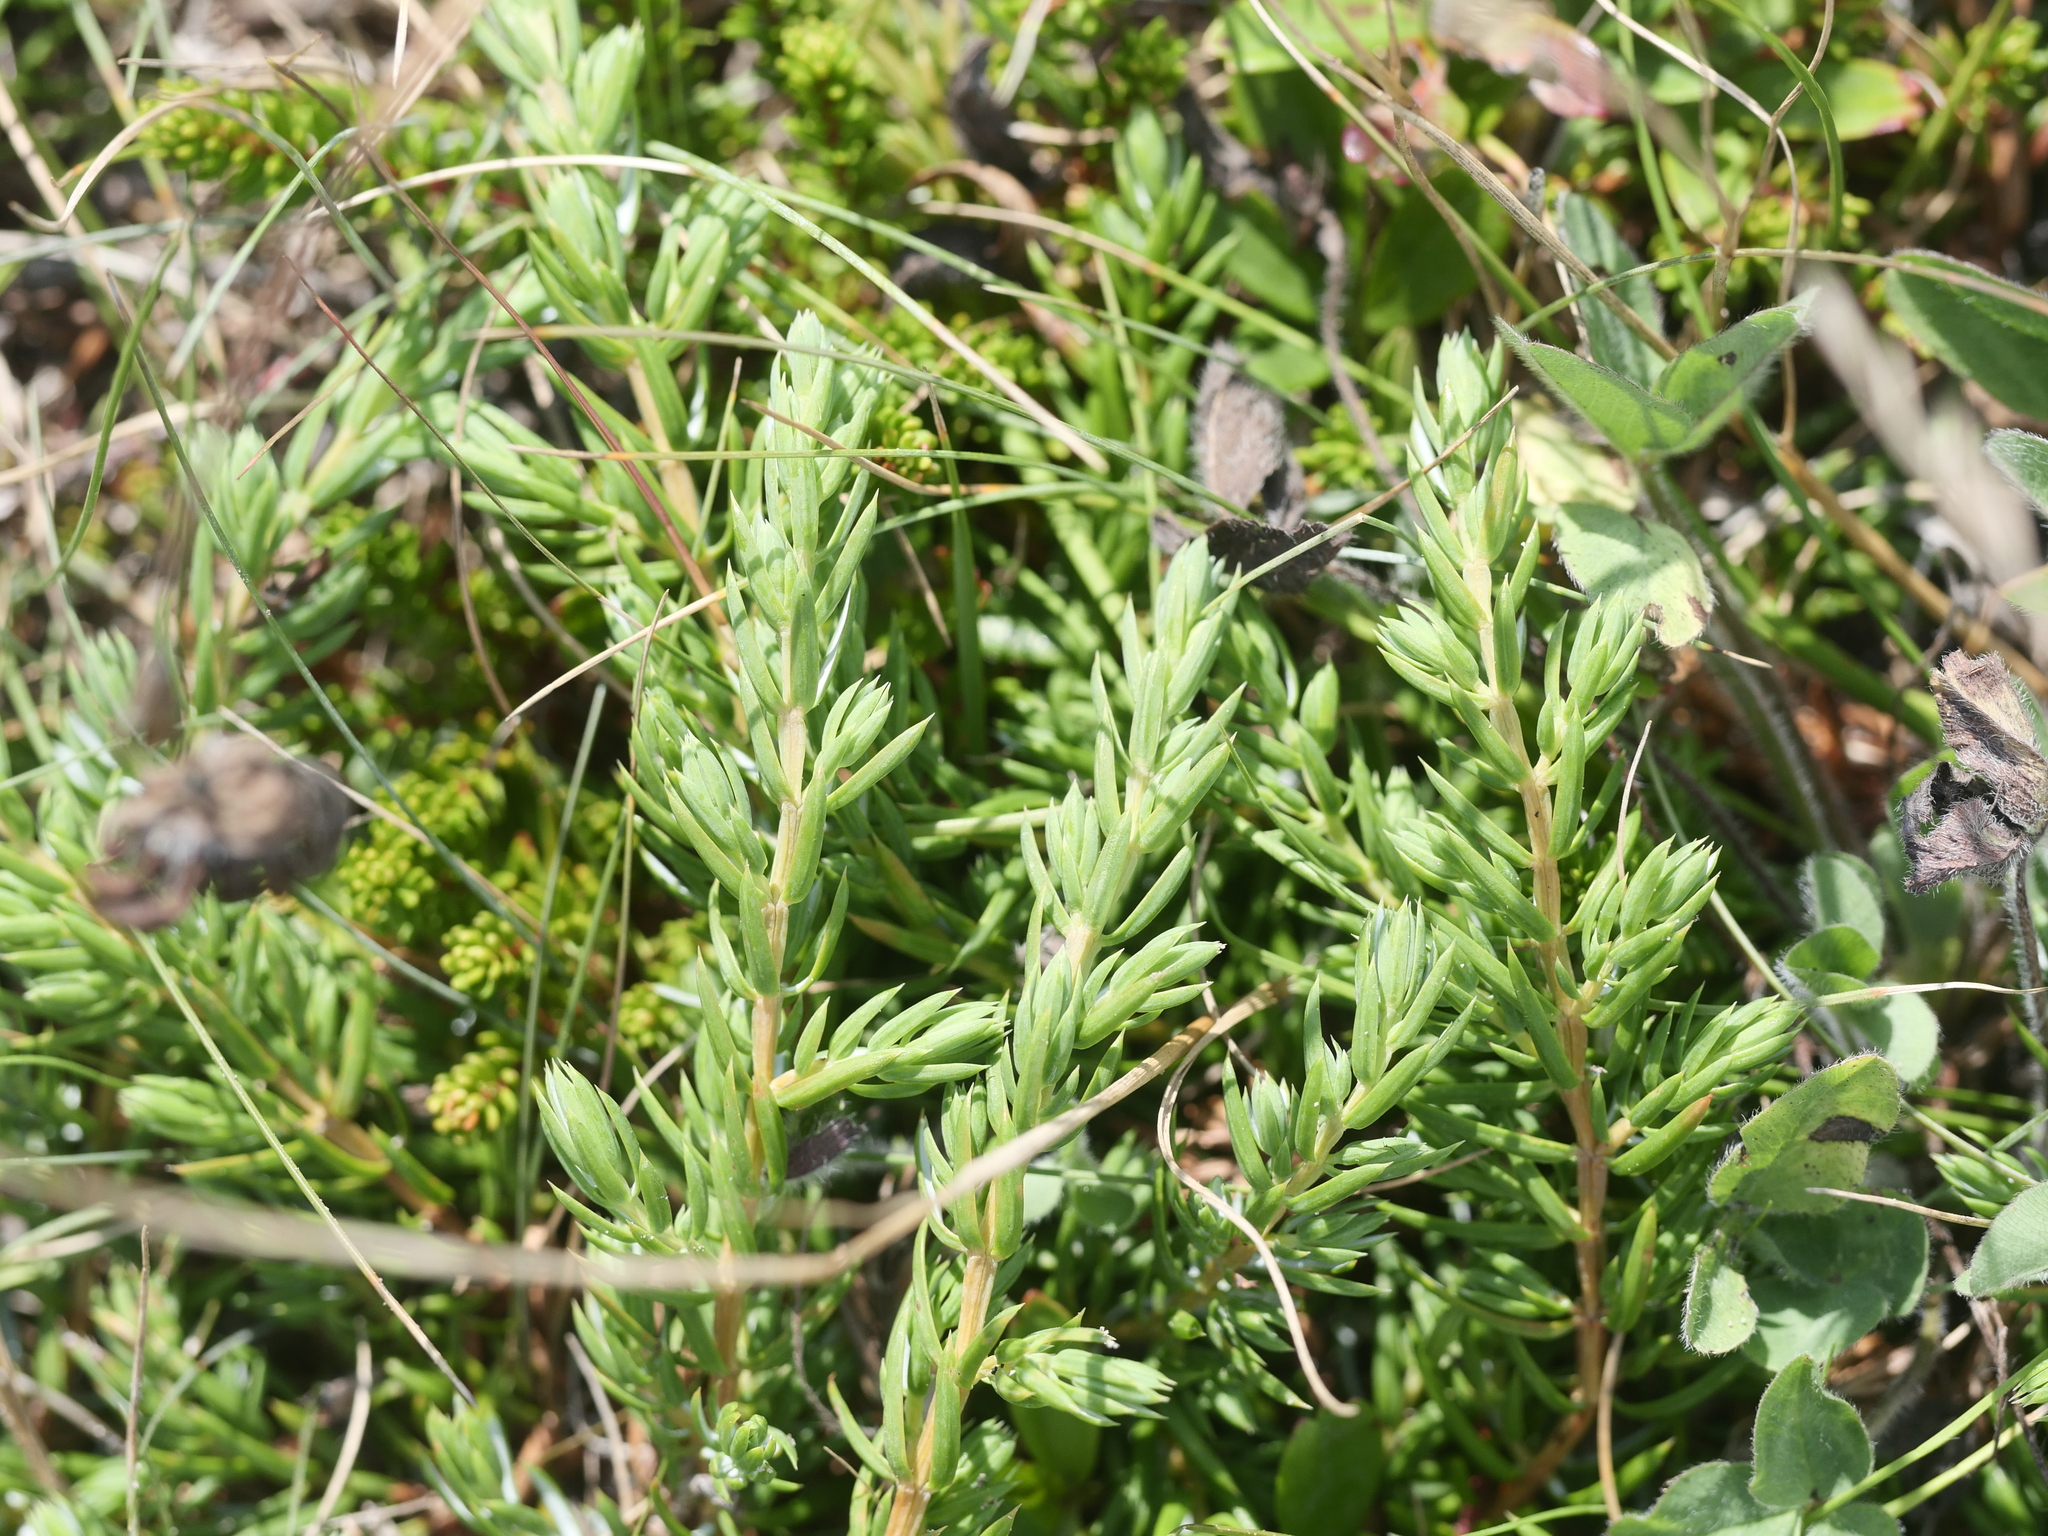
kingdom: Plantae
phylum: Tracheophyta
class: Pinopsida
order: Pinales
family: Cupressaceae
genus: Juniperus
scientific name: Juniperus communis
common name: Common juniper
